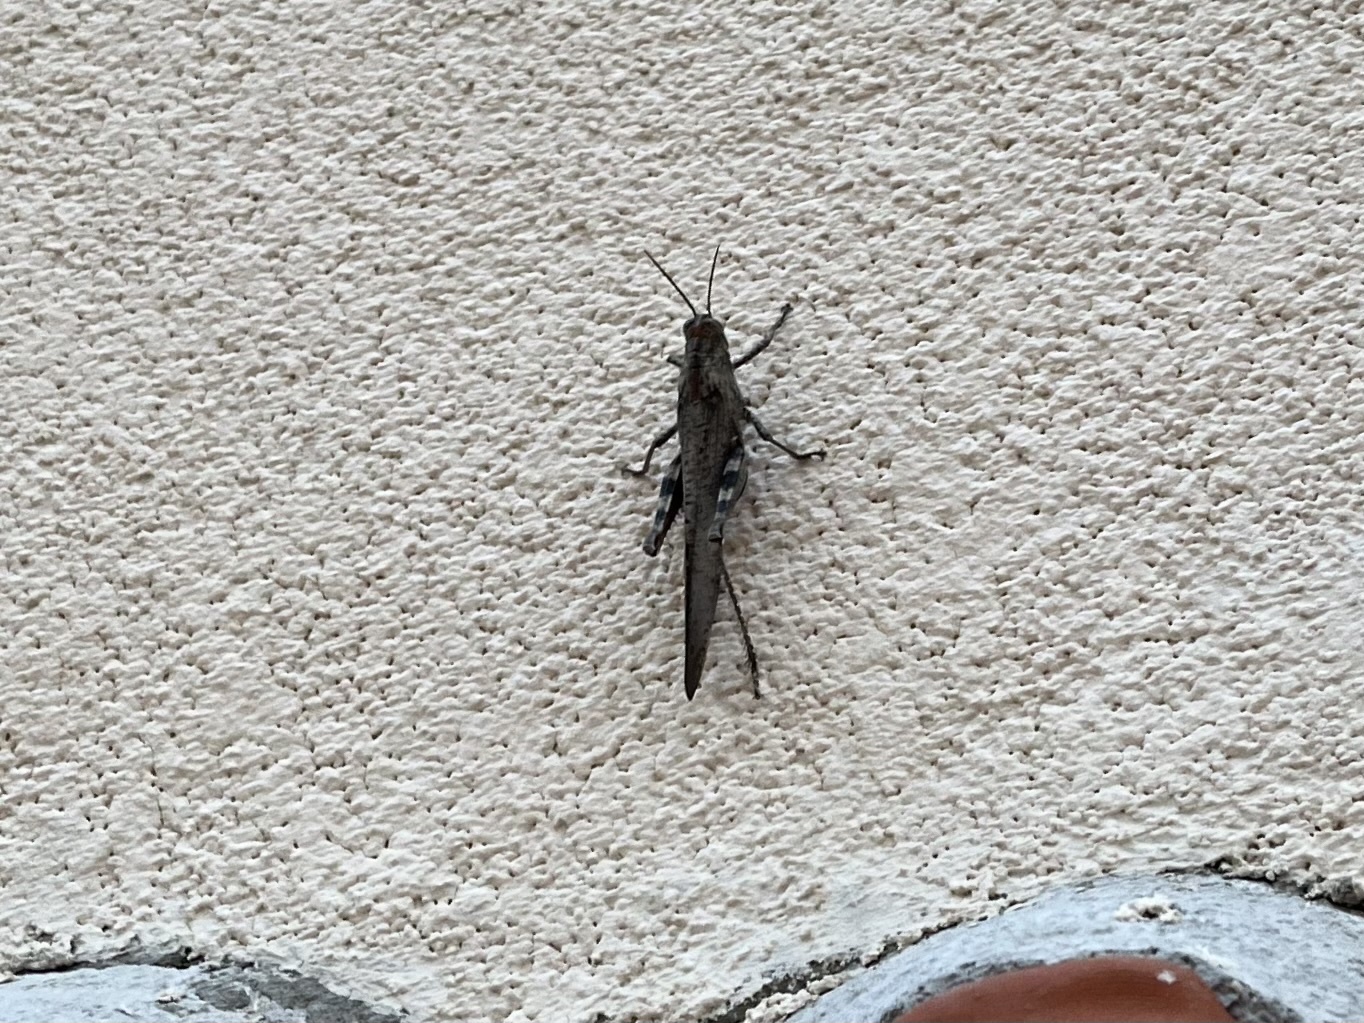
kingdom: Animalia
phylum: Arthropoda
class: Insecta
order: Orthoptera
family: Acrididae
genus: Anacridium
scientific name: Anacridium aegyptium
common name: Egyptian grasshopper
